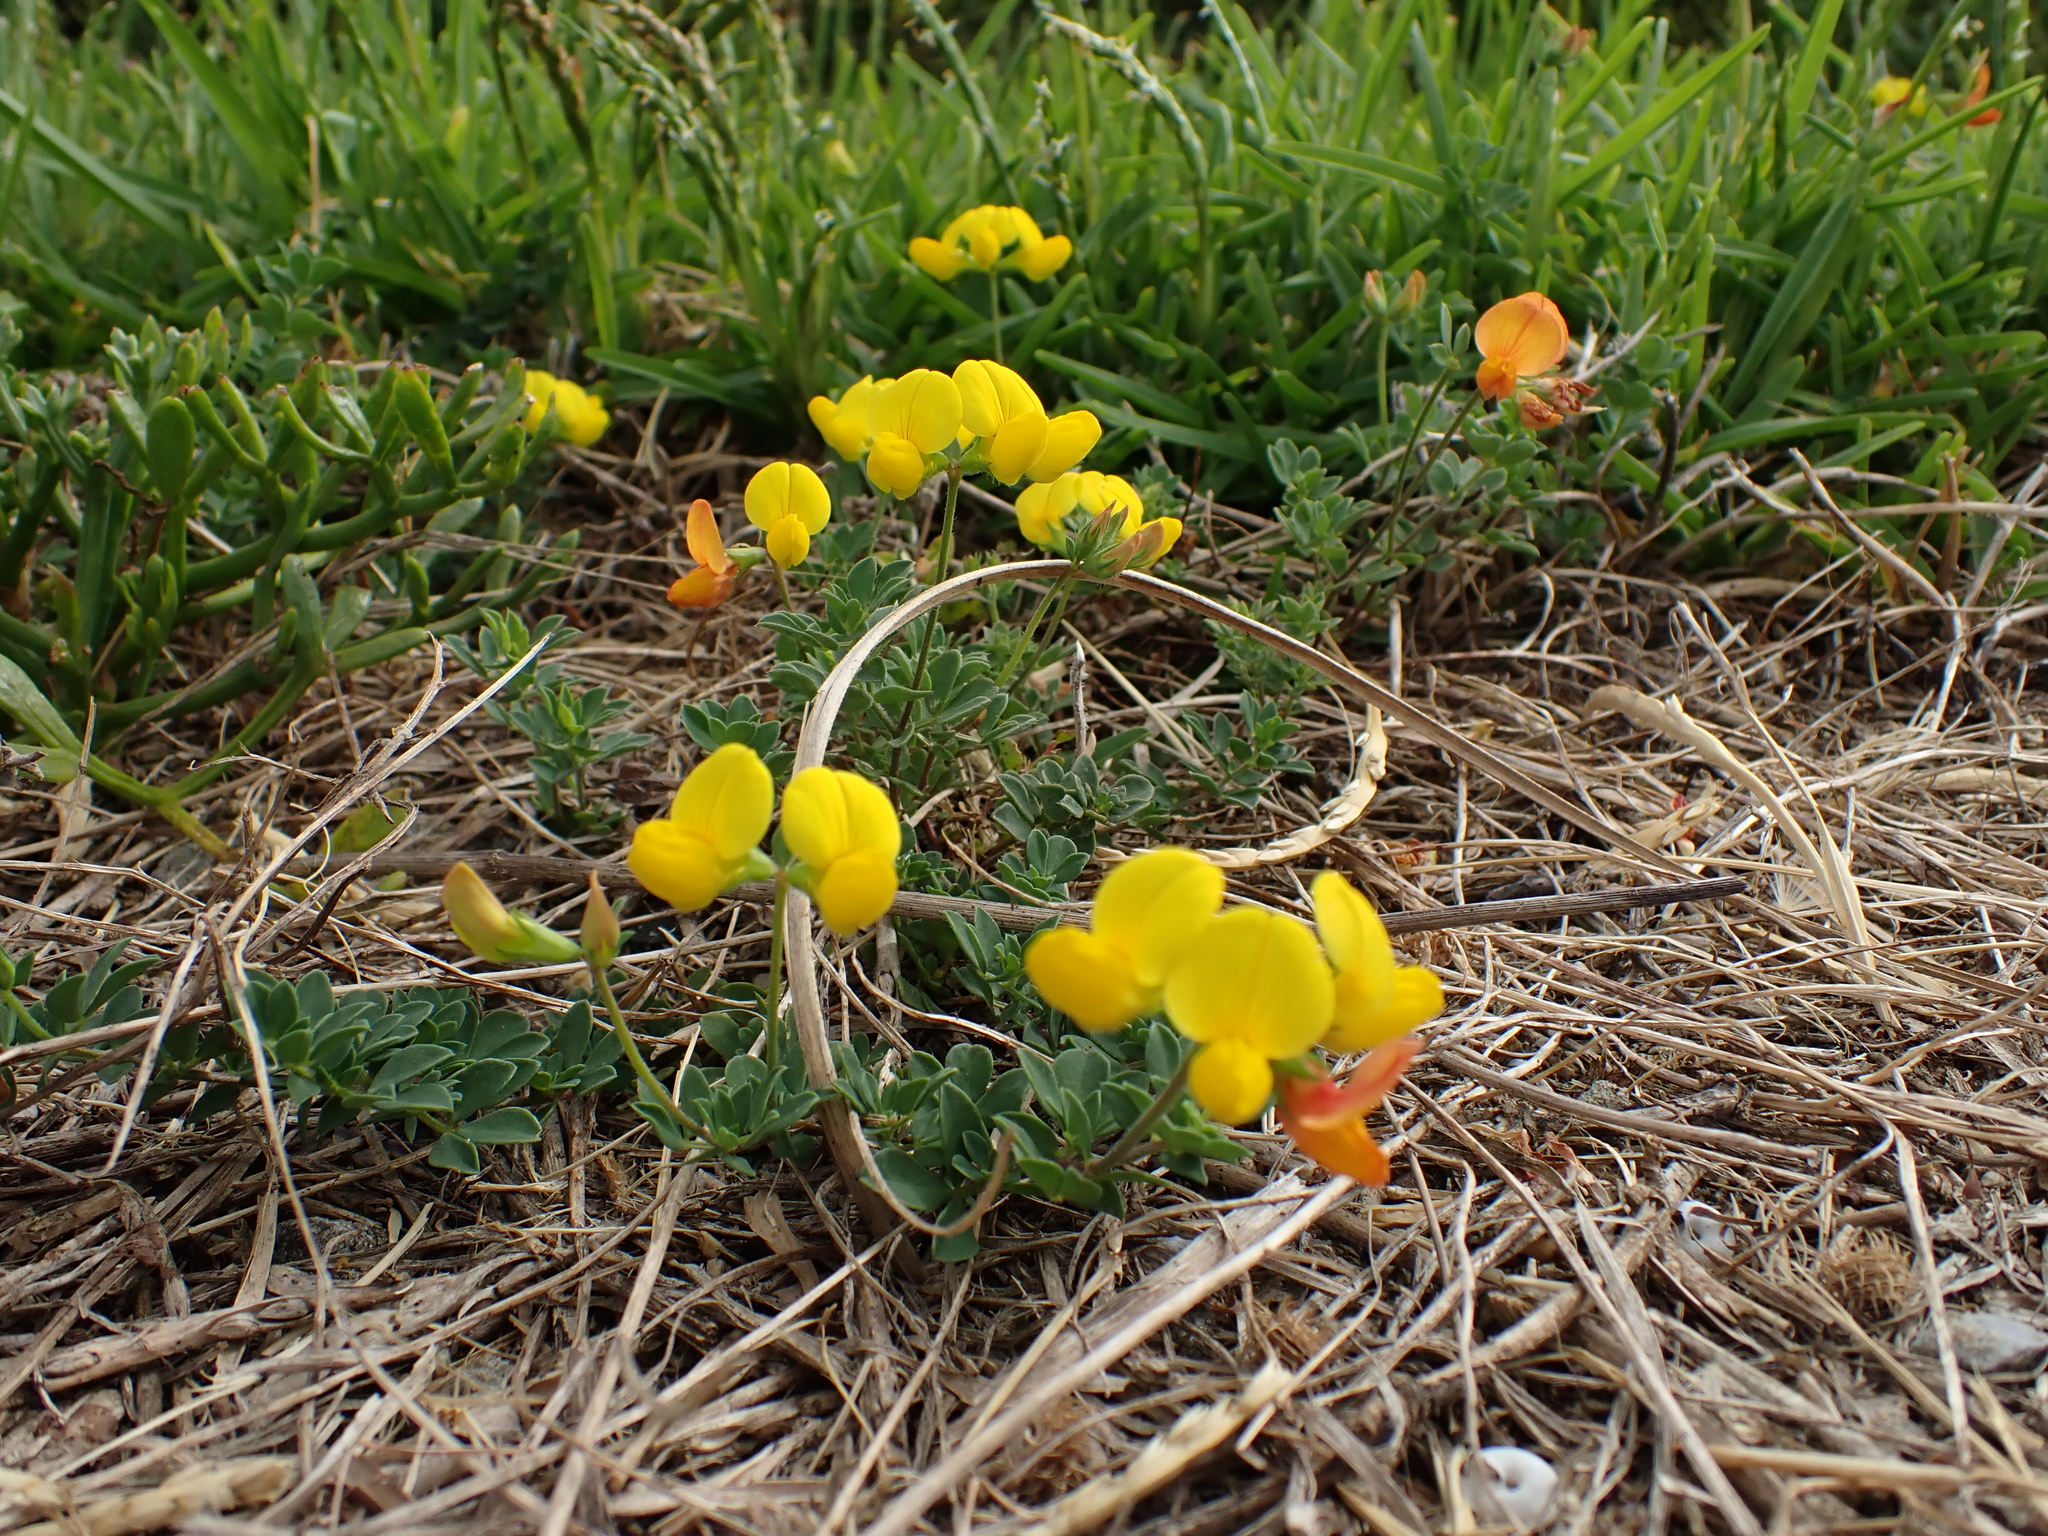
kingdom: Plantae
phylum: Tracheophyta
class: Magnoliopsida
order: Fabales
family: Fabaceae
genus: Lotus
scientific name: Lotus corniculatus
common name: Common bird's-foot-trefoil
